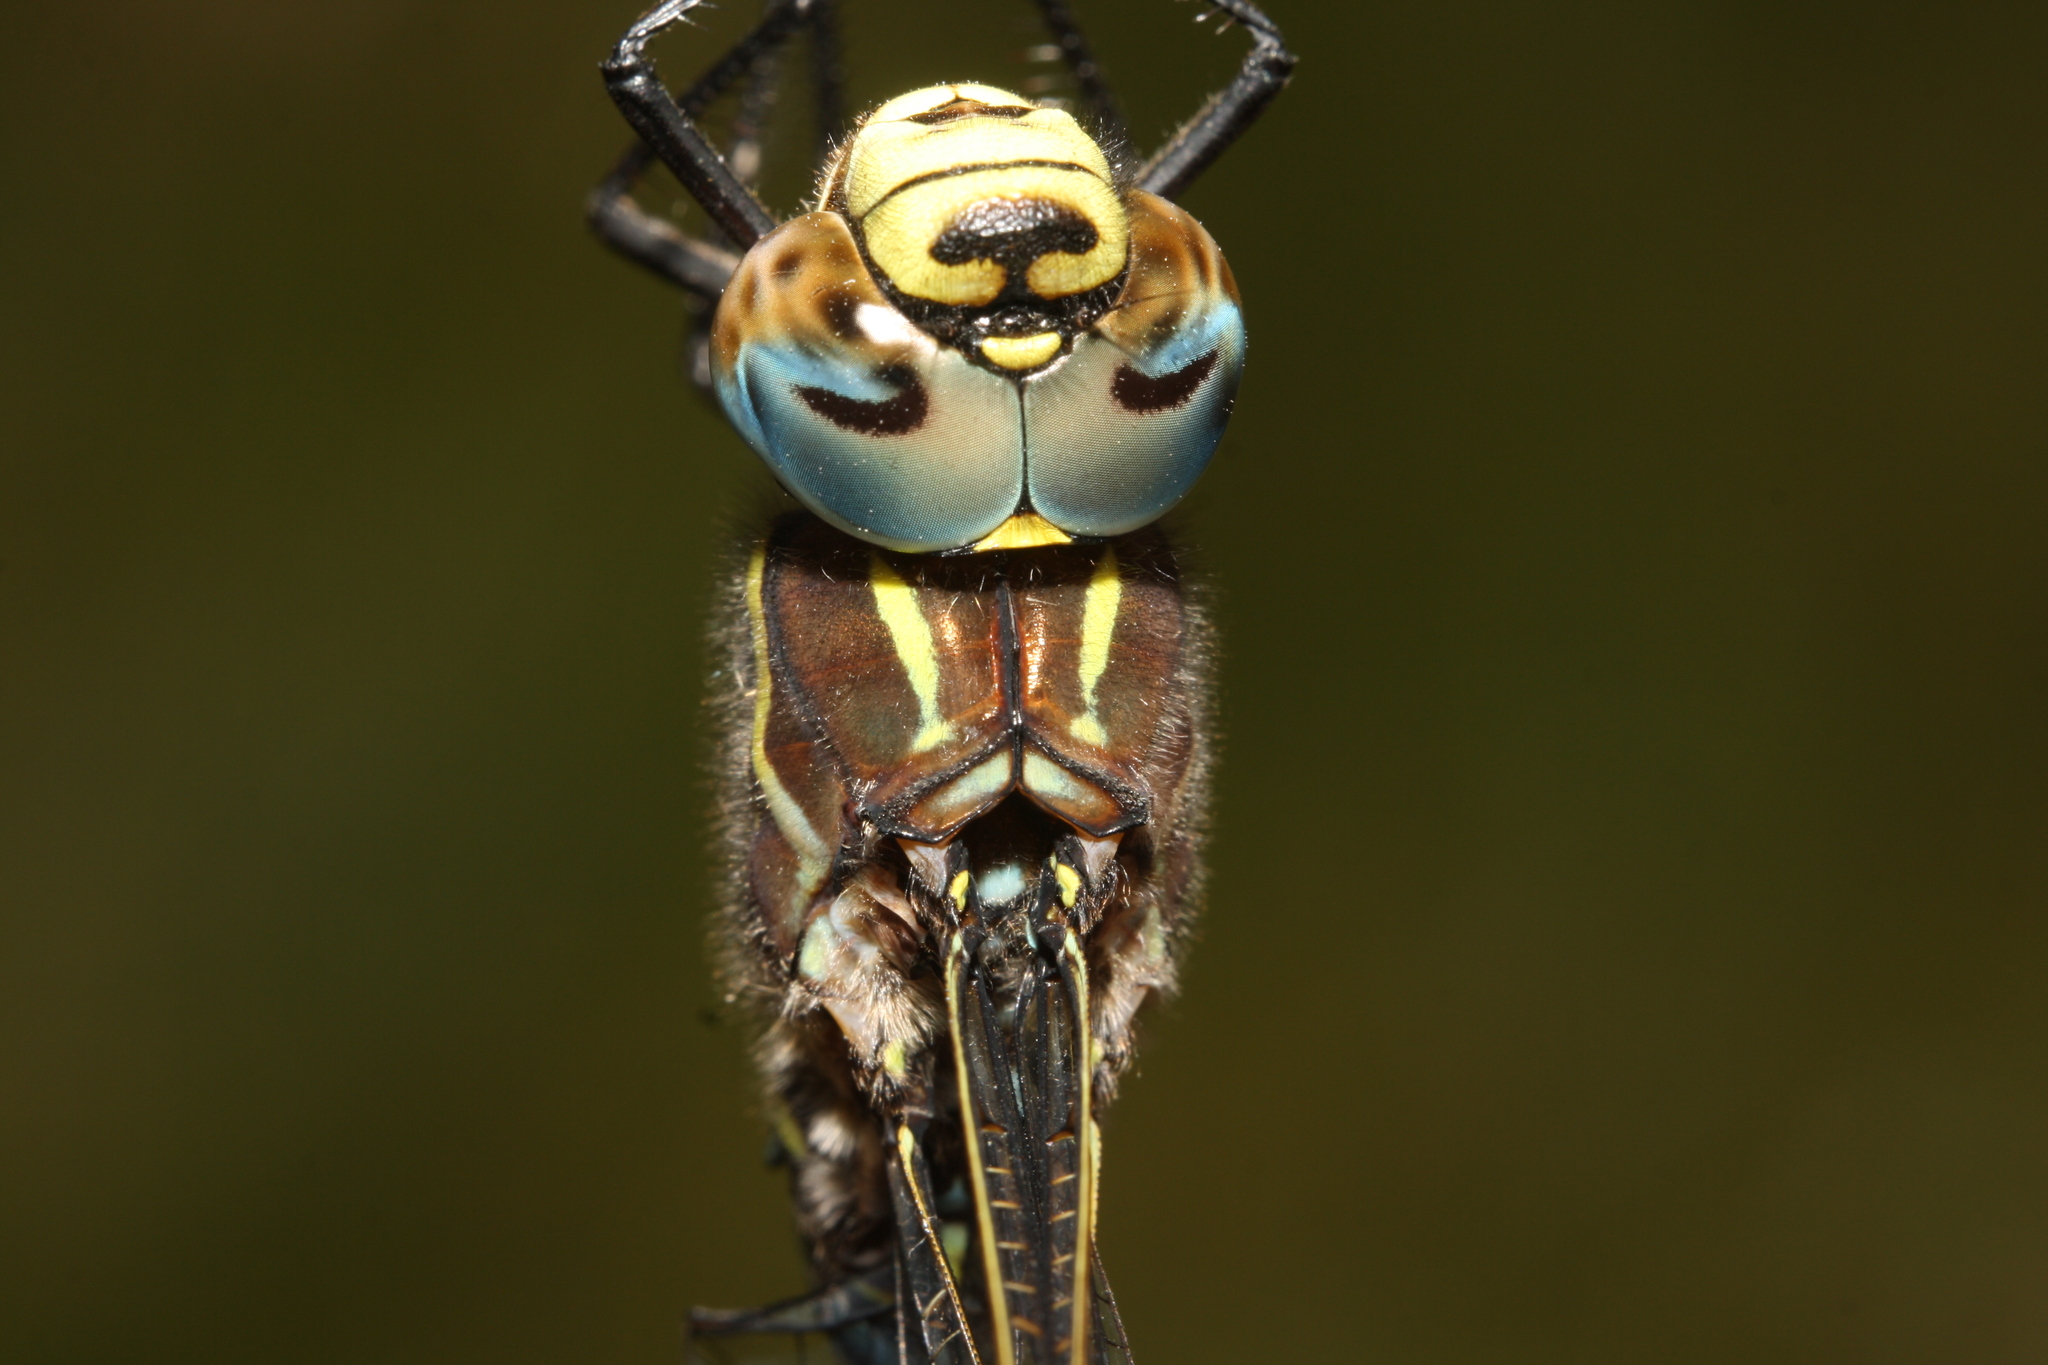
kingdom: Animalia
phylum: Arthropoda
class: Insecta
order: Odonata
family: Aeshnidae
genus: Aeshna
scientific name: Aeshna juncea
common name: Moorland hawker
